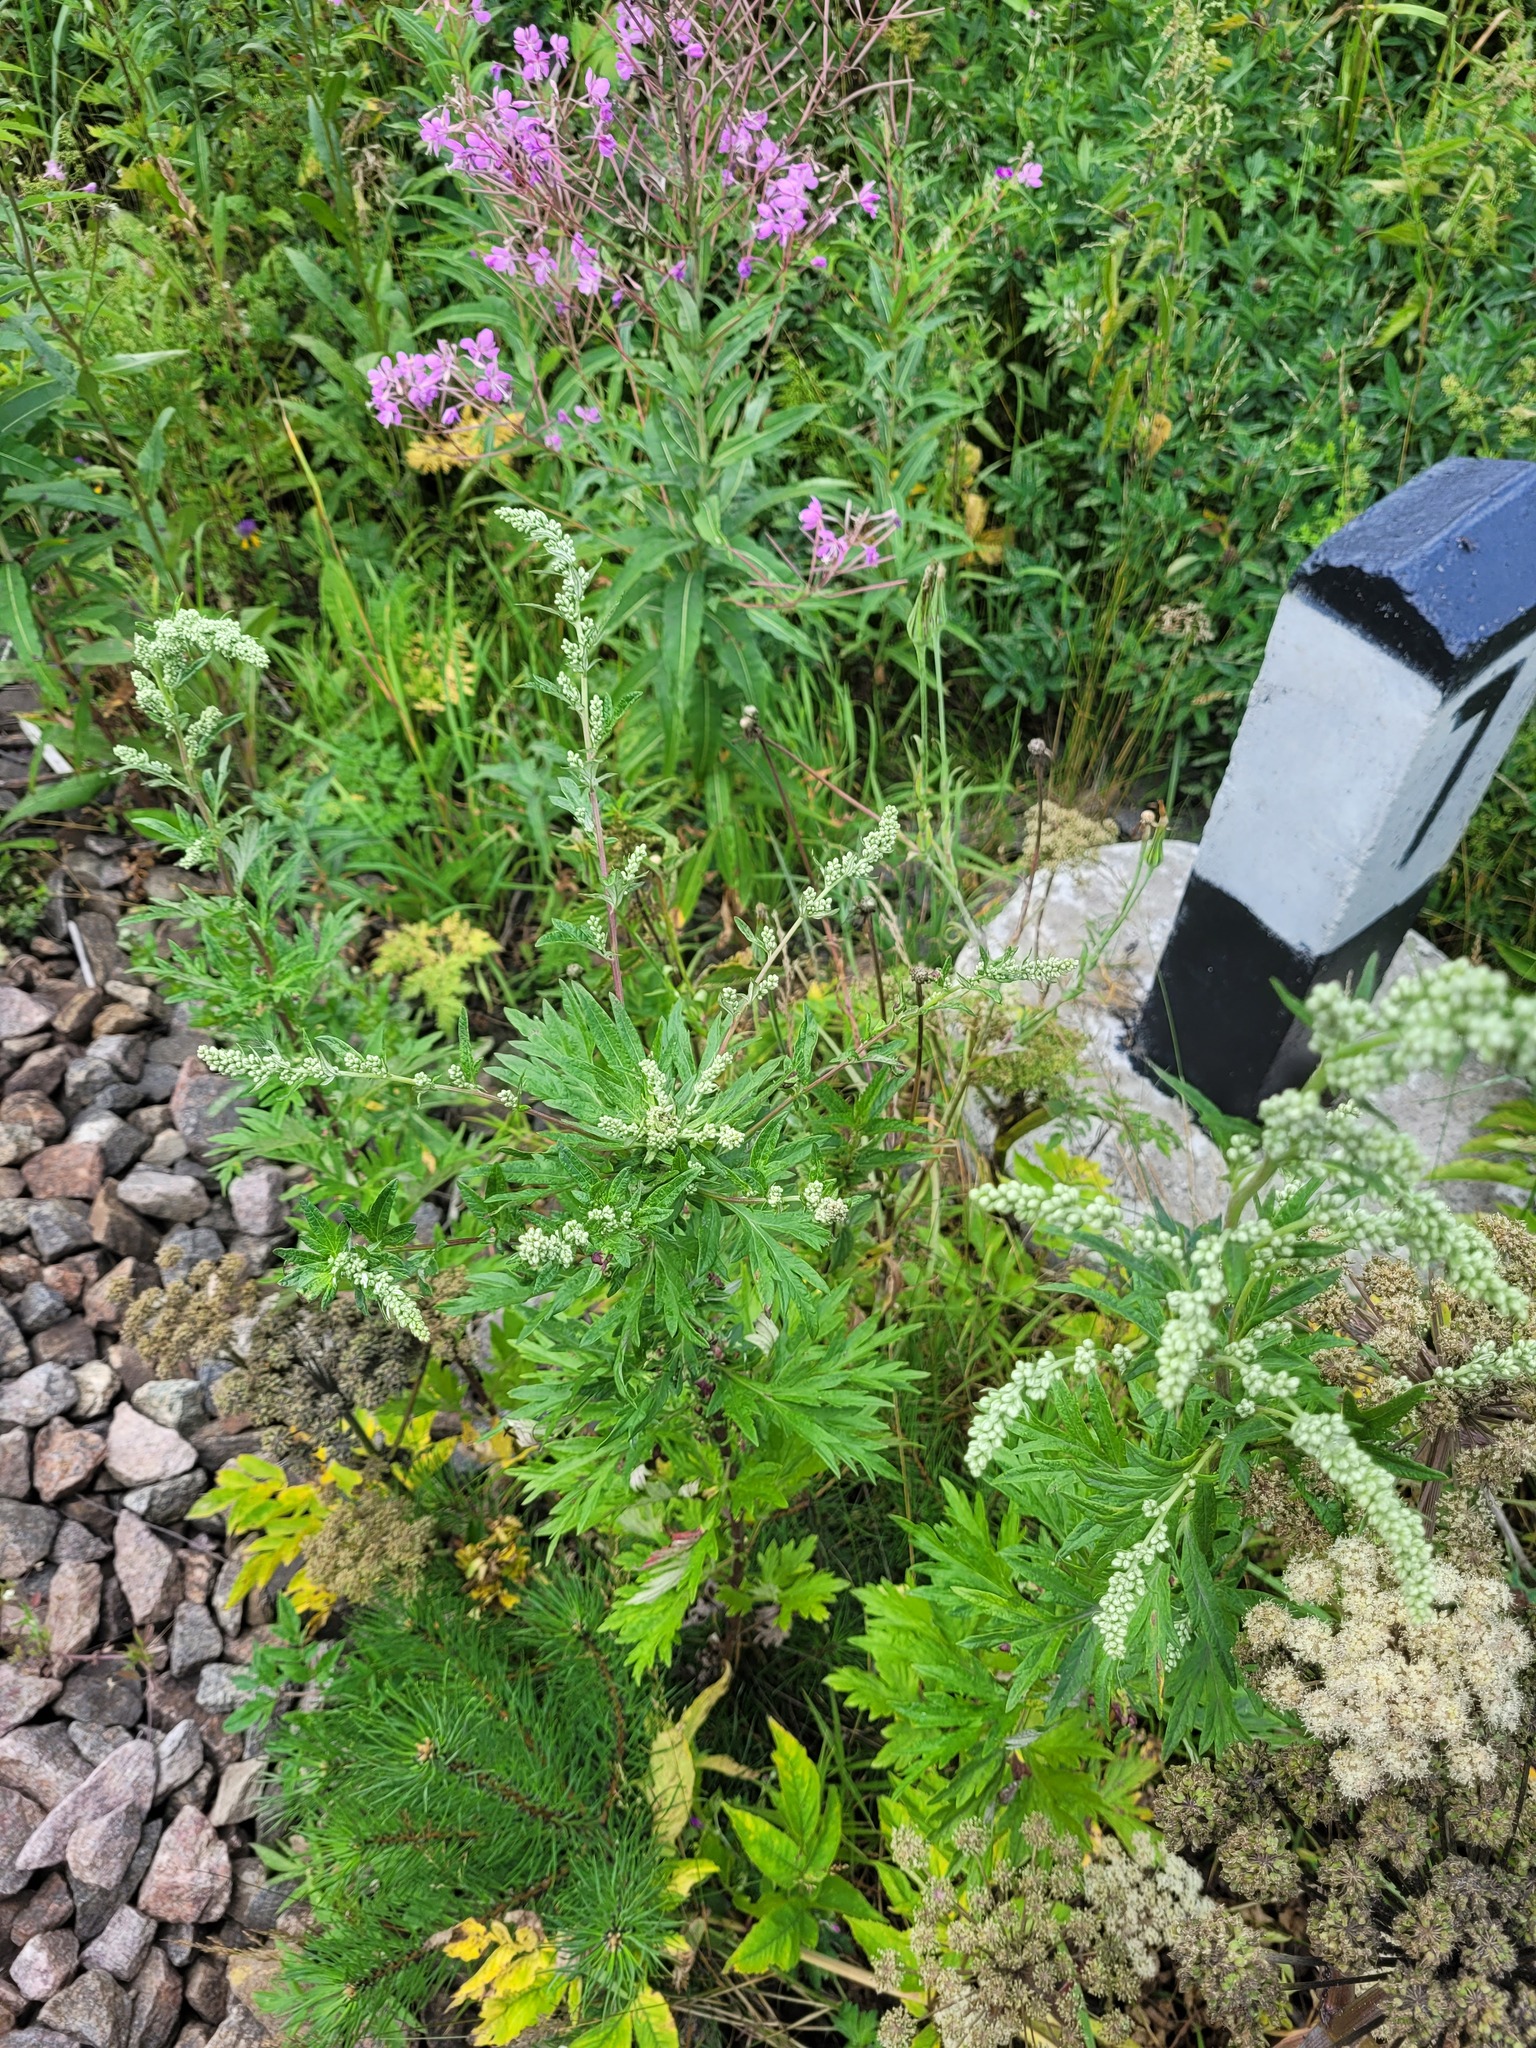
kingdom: Plantae
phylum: Tracheophyta
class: Magnoliopsida
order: Asterales
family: Asteraceae
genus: Artemisia
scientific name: Artemisia vulgaris
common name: Mugwort
